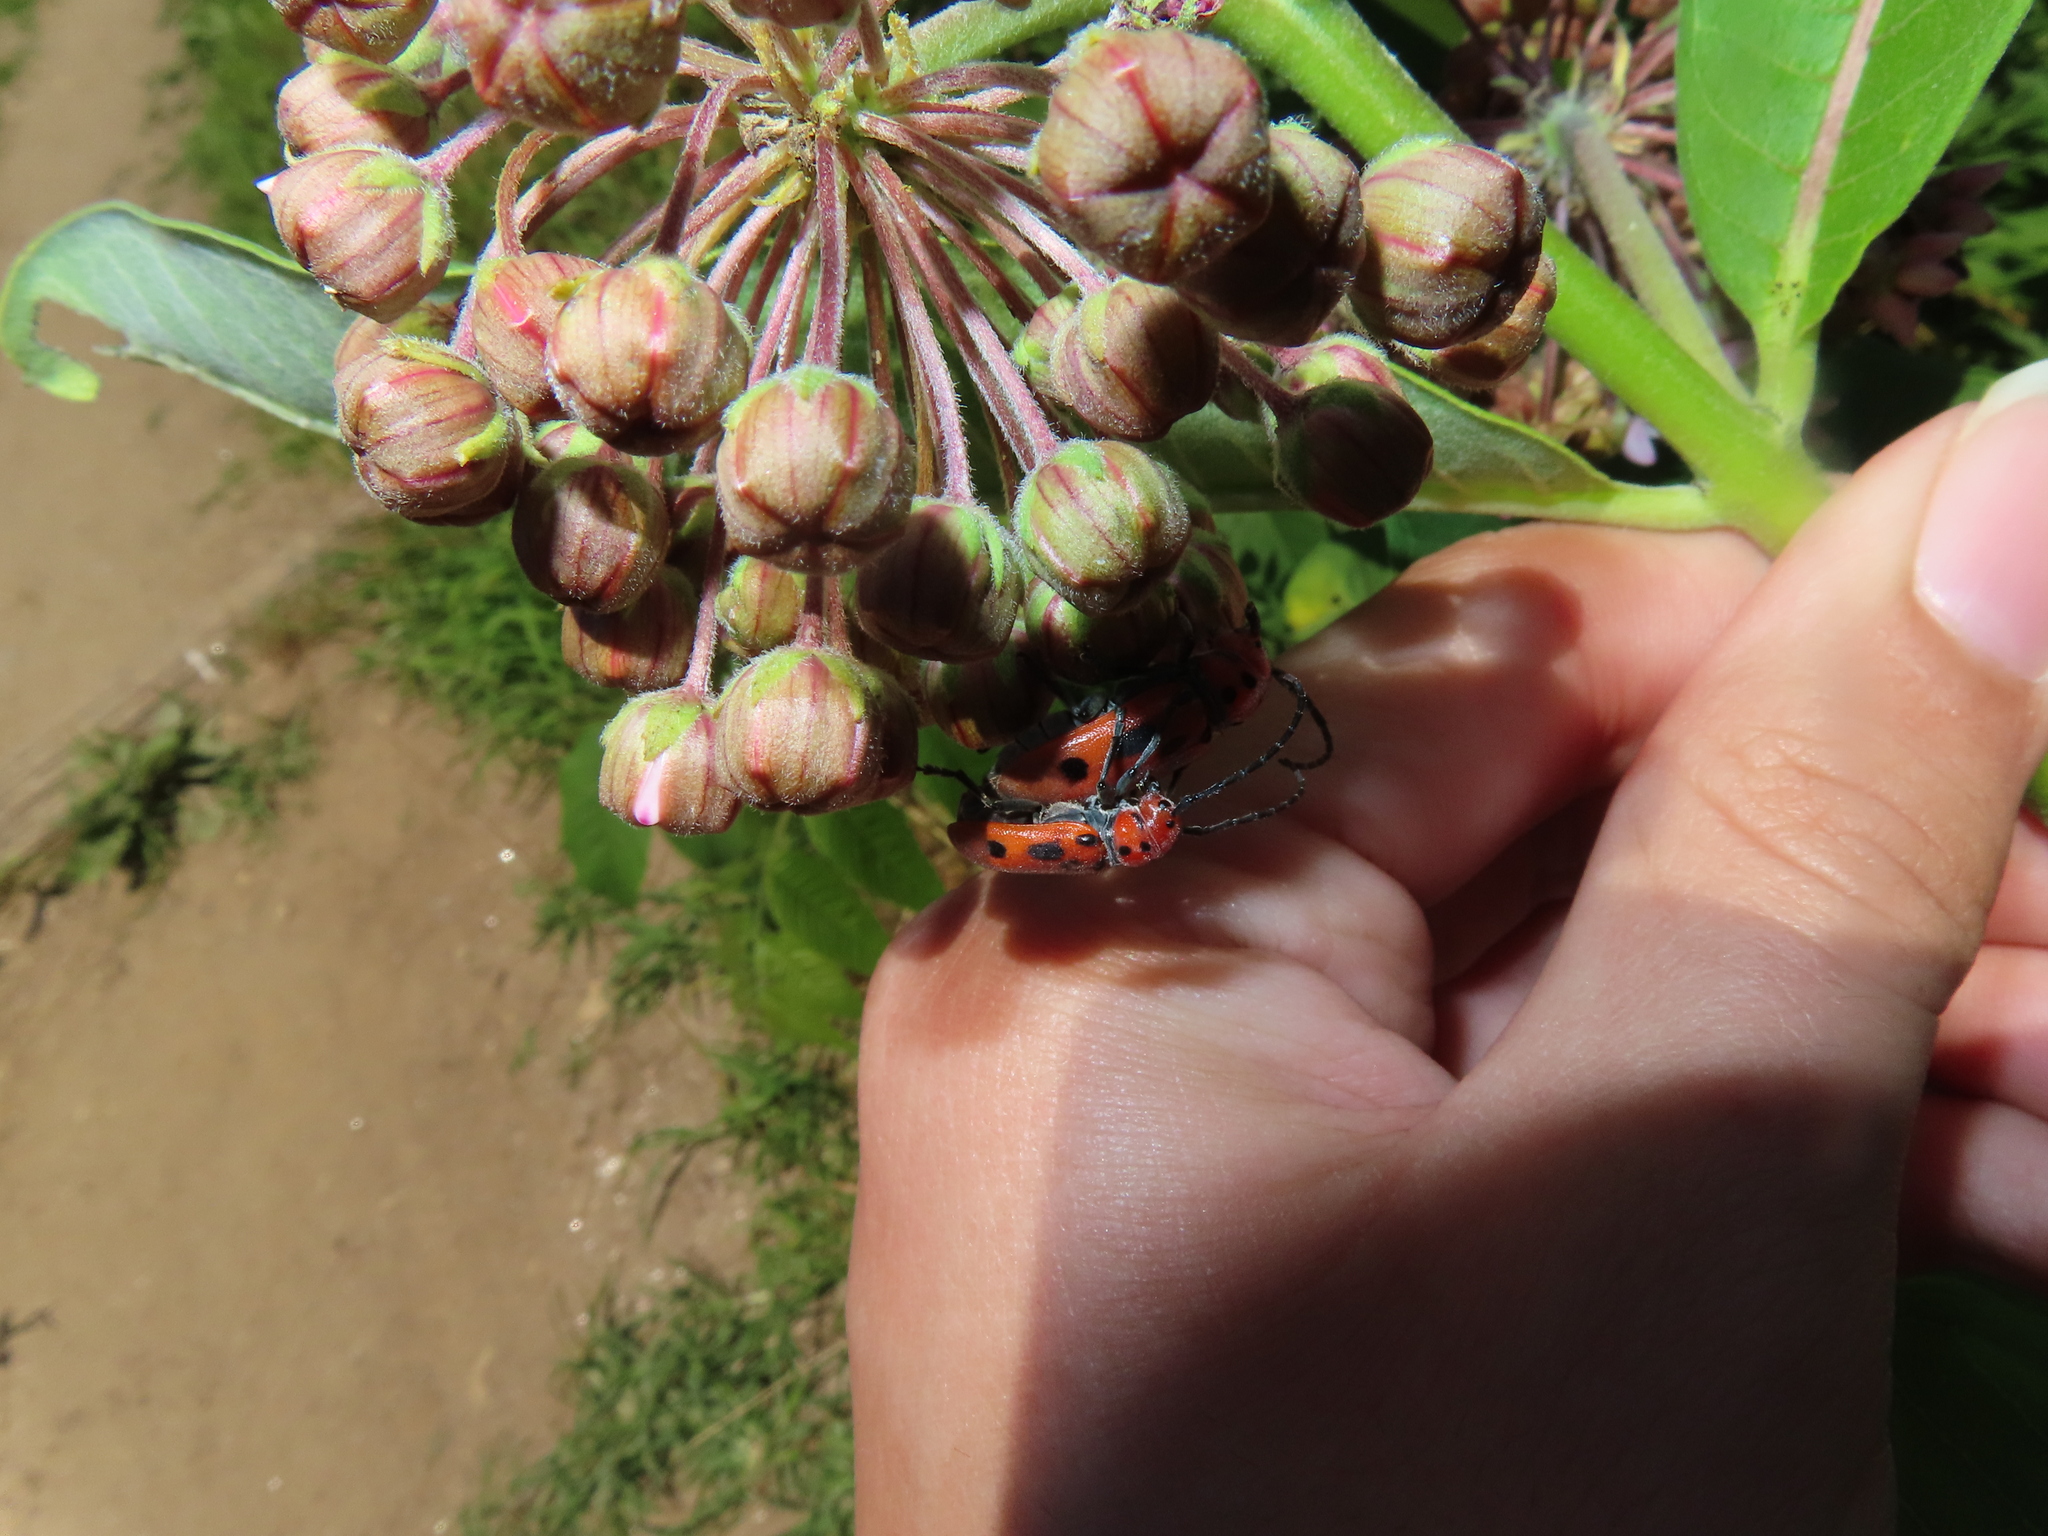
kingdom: Animalia
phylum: Arthropoda
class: Insecta
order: Coleoptera
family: Cerambycidae
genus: Tetraopes
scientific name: Tetraopes tetrophthalmus
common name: Red milkweed beetle
